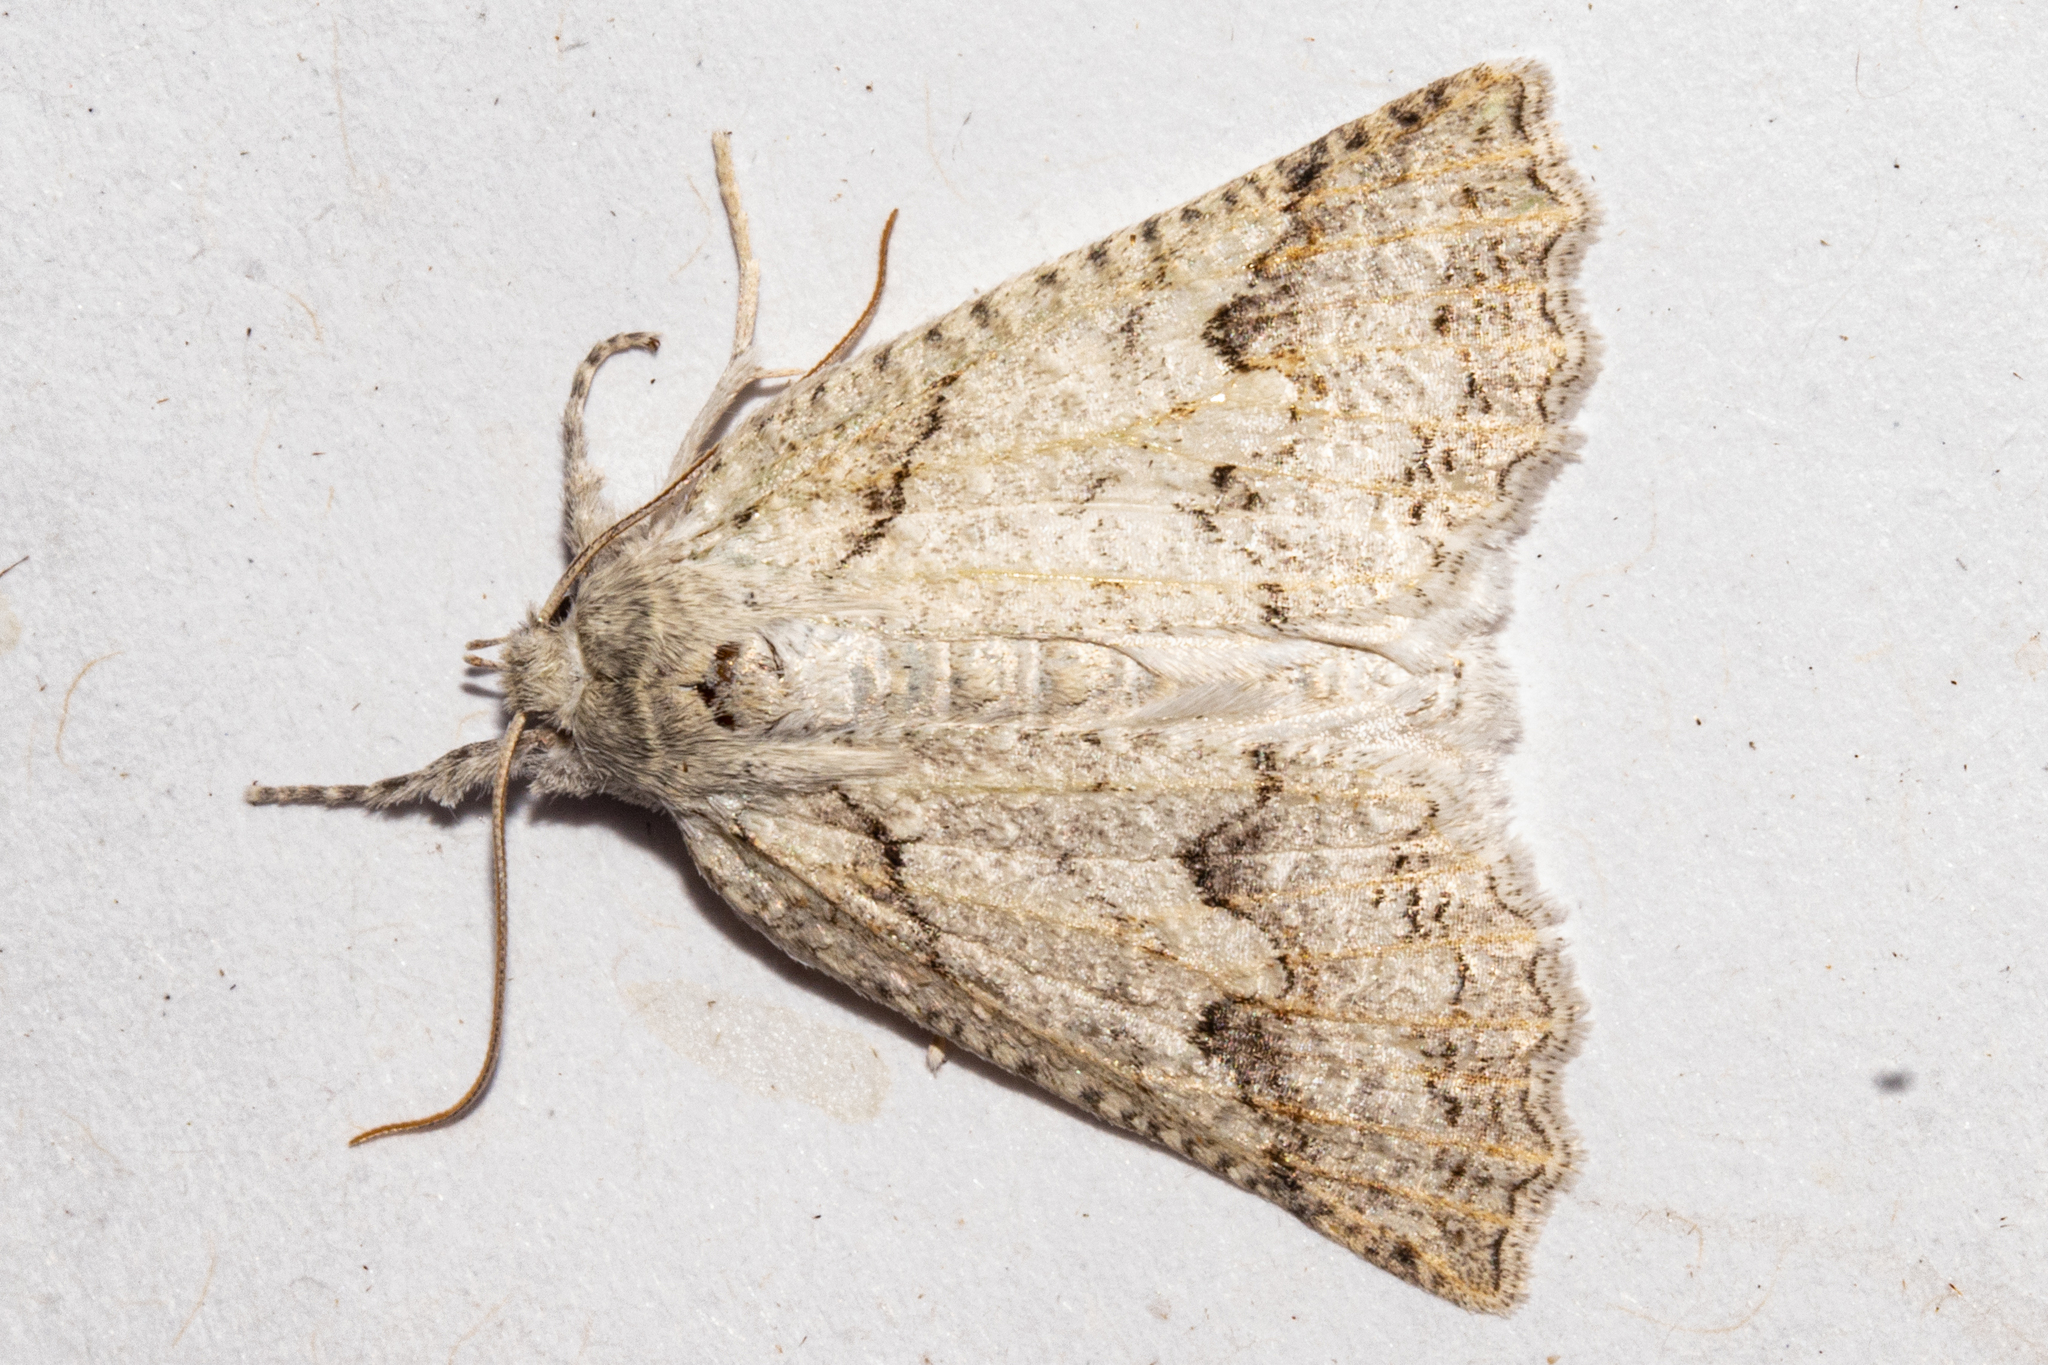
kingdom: Animalia
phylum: Arthropoda
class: Insecta
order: Lepidoptera
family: Geometridae
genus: Declana
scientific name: Declana niveata
